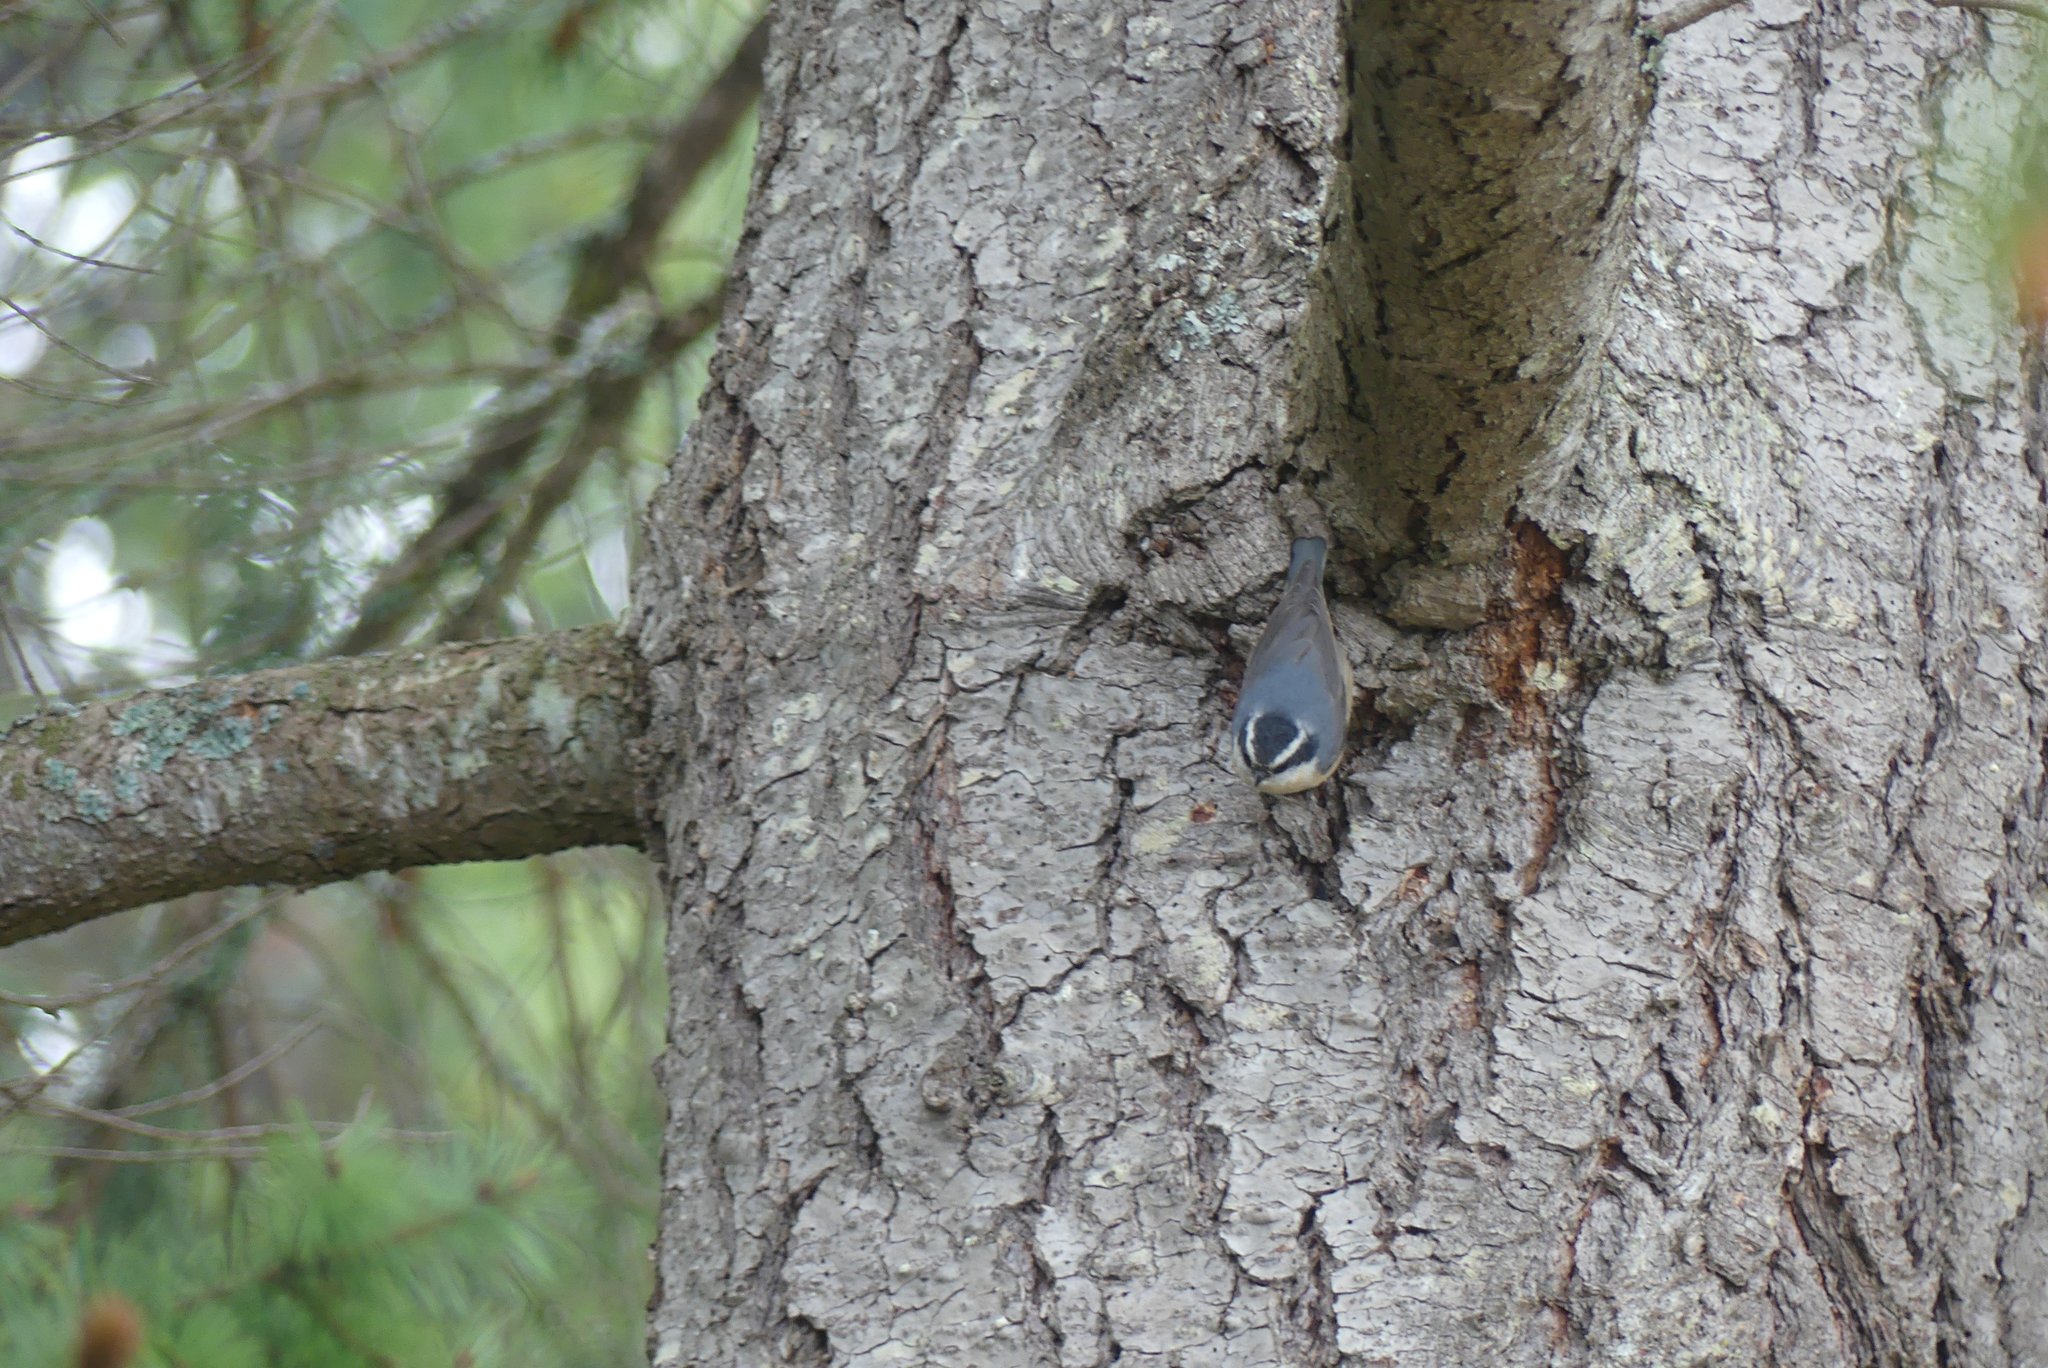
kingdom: Animalia
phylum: Chordata
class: Aves
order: Passeriformes
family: Sittidae
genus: Sitta
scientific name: Sitta canadensis
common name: Red-breasted nuthatch
